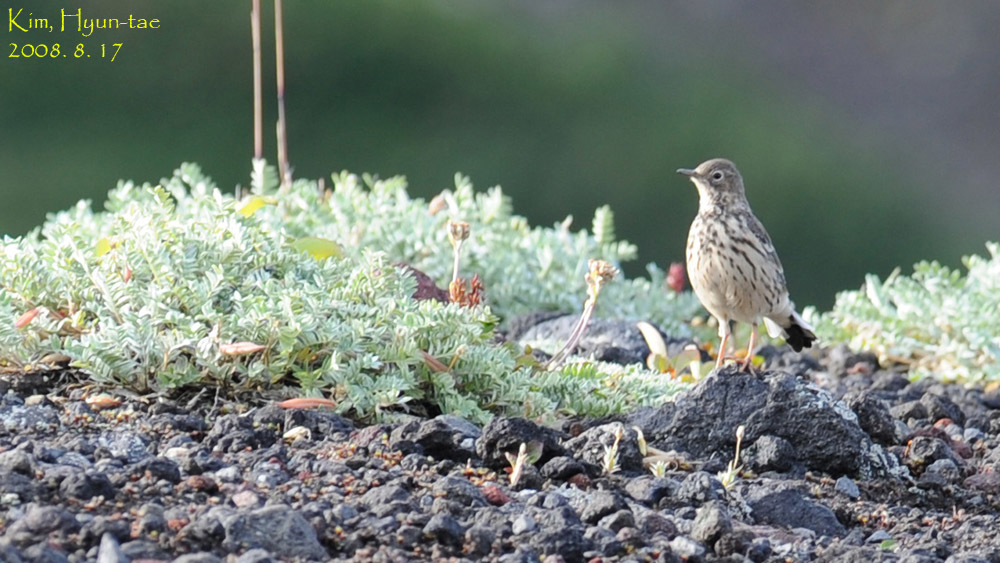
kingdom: Animalia
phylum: Chordata
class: Aves
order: Passeriformes
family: Motacillidae
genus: Anthus
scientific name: Anthus rubescens
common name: Buff-bellied pipit
